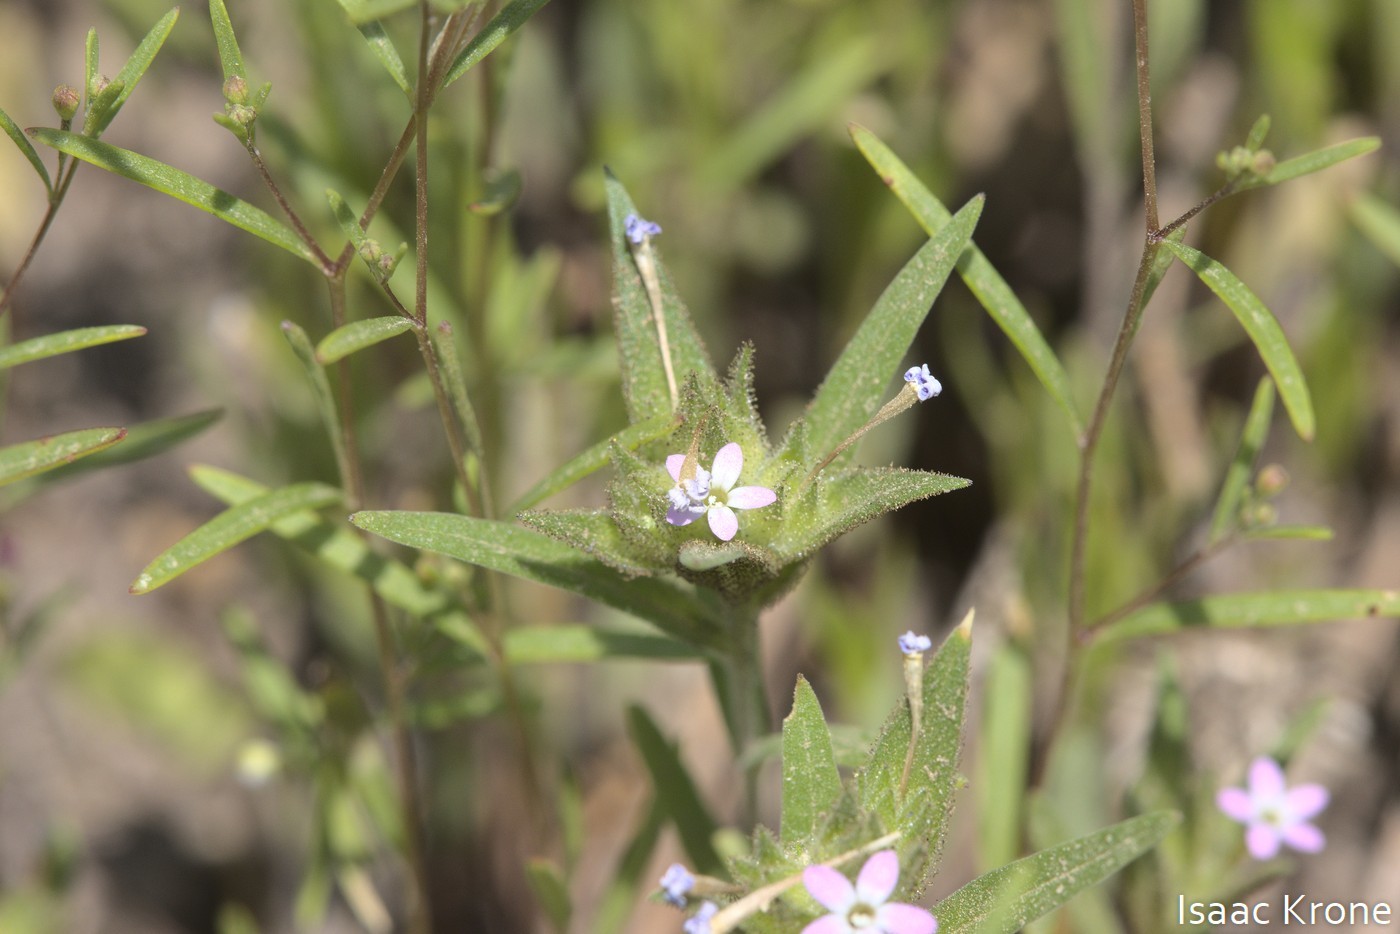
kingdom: Plantae
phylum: Tracheophyta
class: Magnoliopsida
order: Ericales
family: Polemoniaceae
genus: Collomia
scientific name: Collomia linearis
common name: Tiny trumpet
